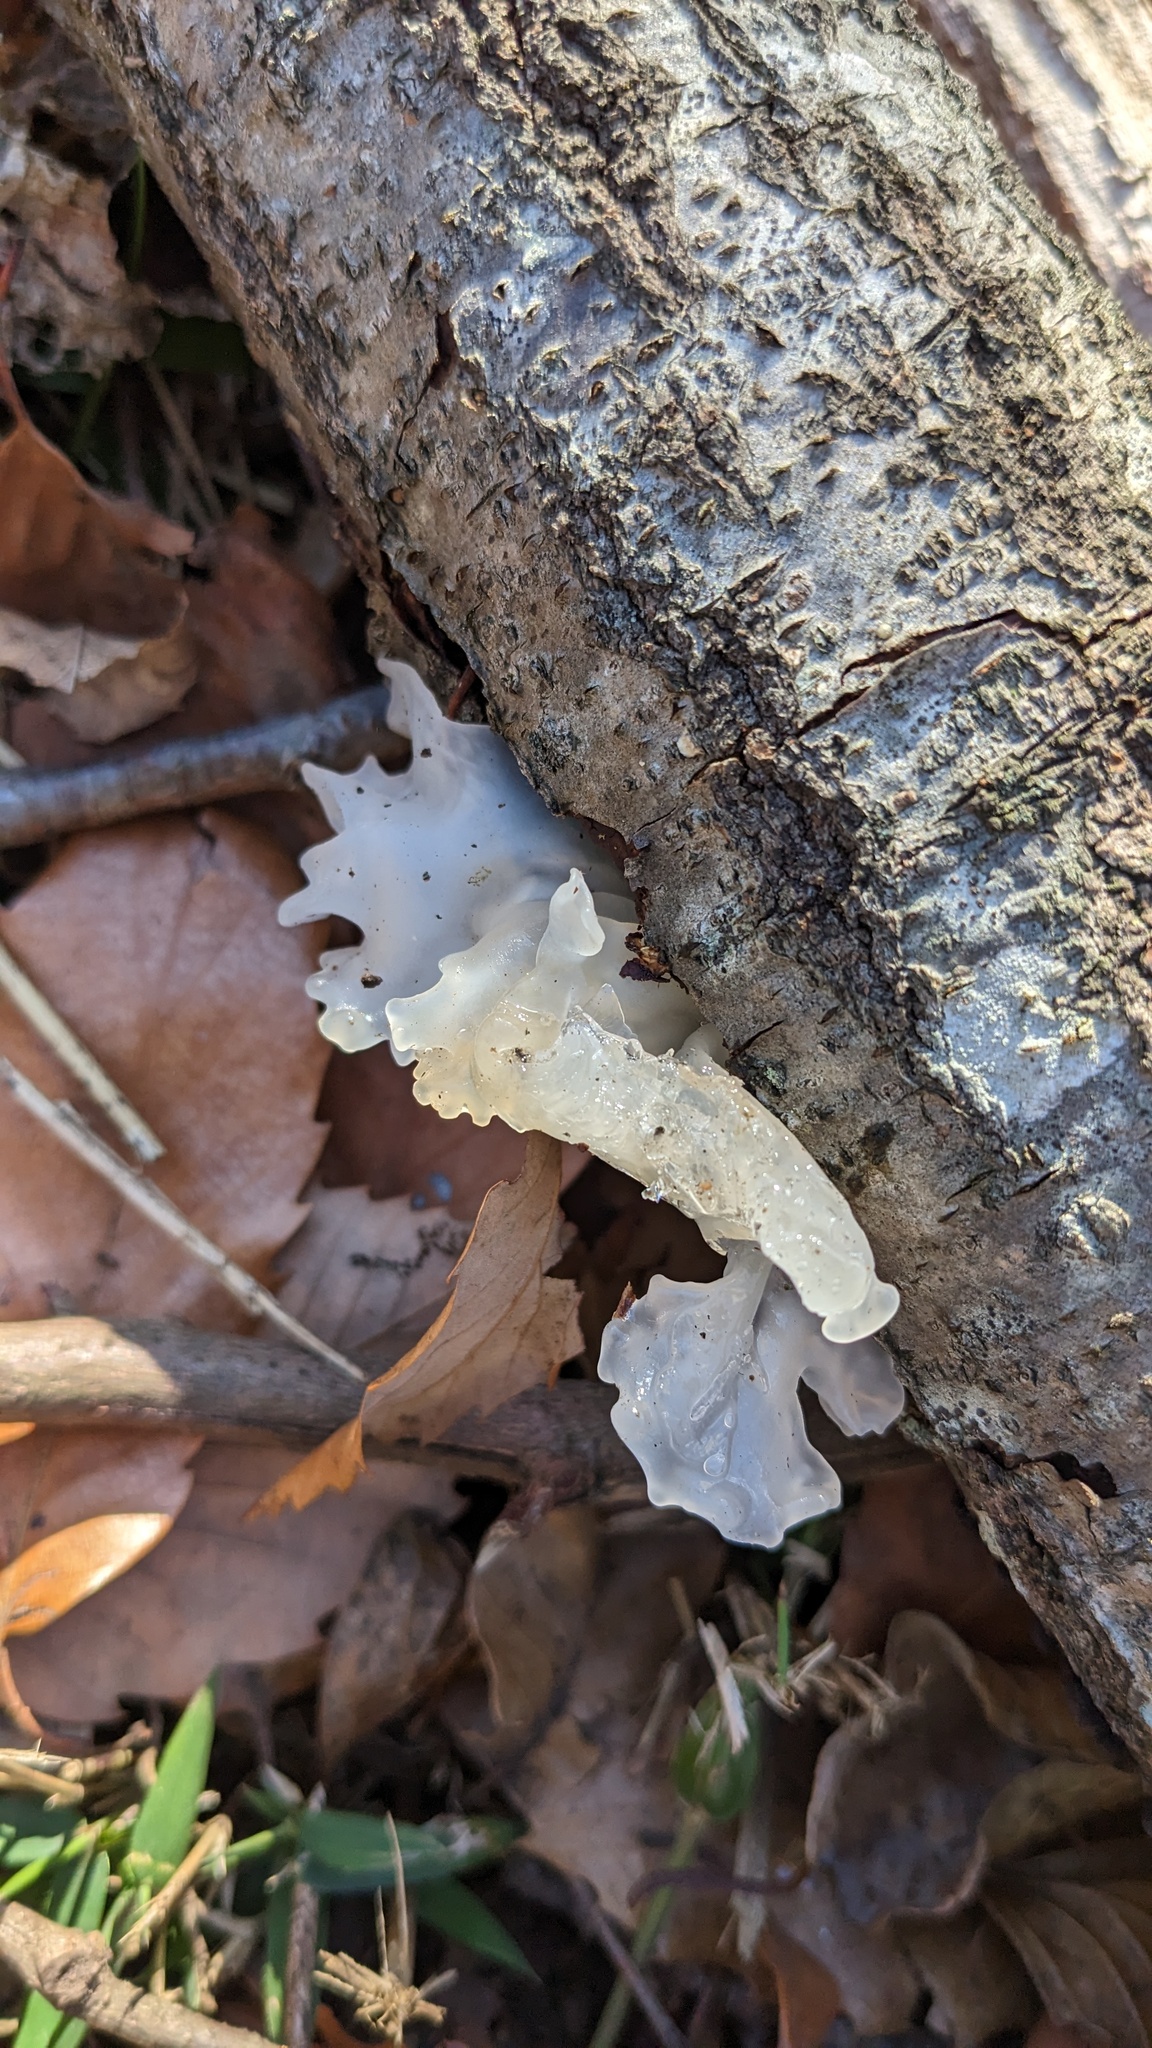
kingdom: Fungi
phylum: Basidiomycota
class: Tremellomycetes
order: Tremellales
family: Tremellaceae
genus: Tremella
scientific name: Tremella fuciformis
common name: Snow fungus
